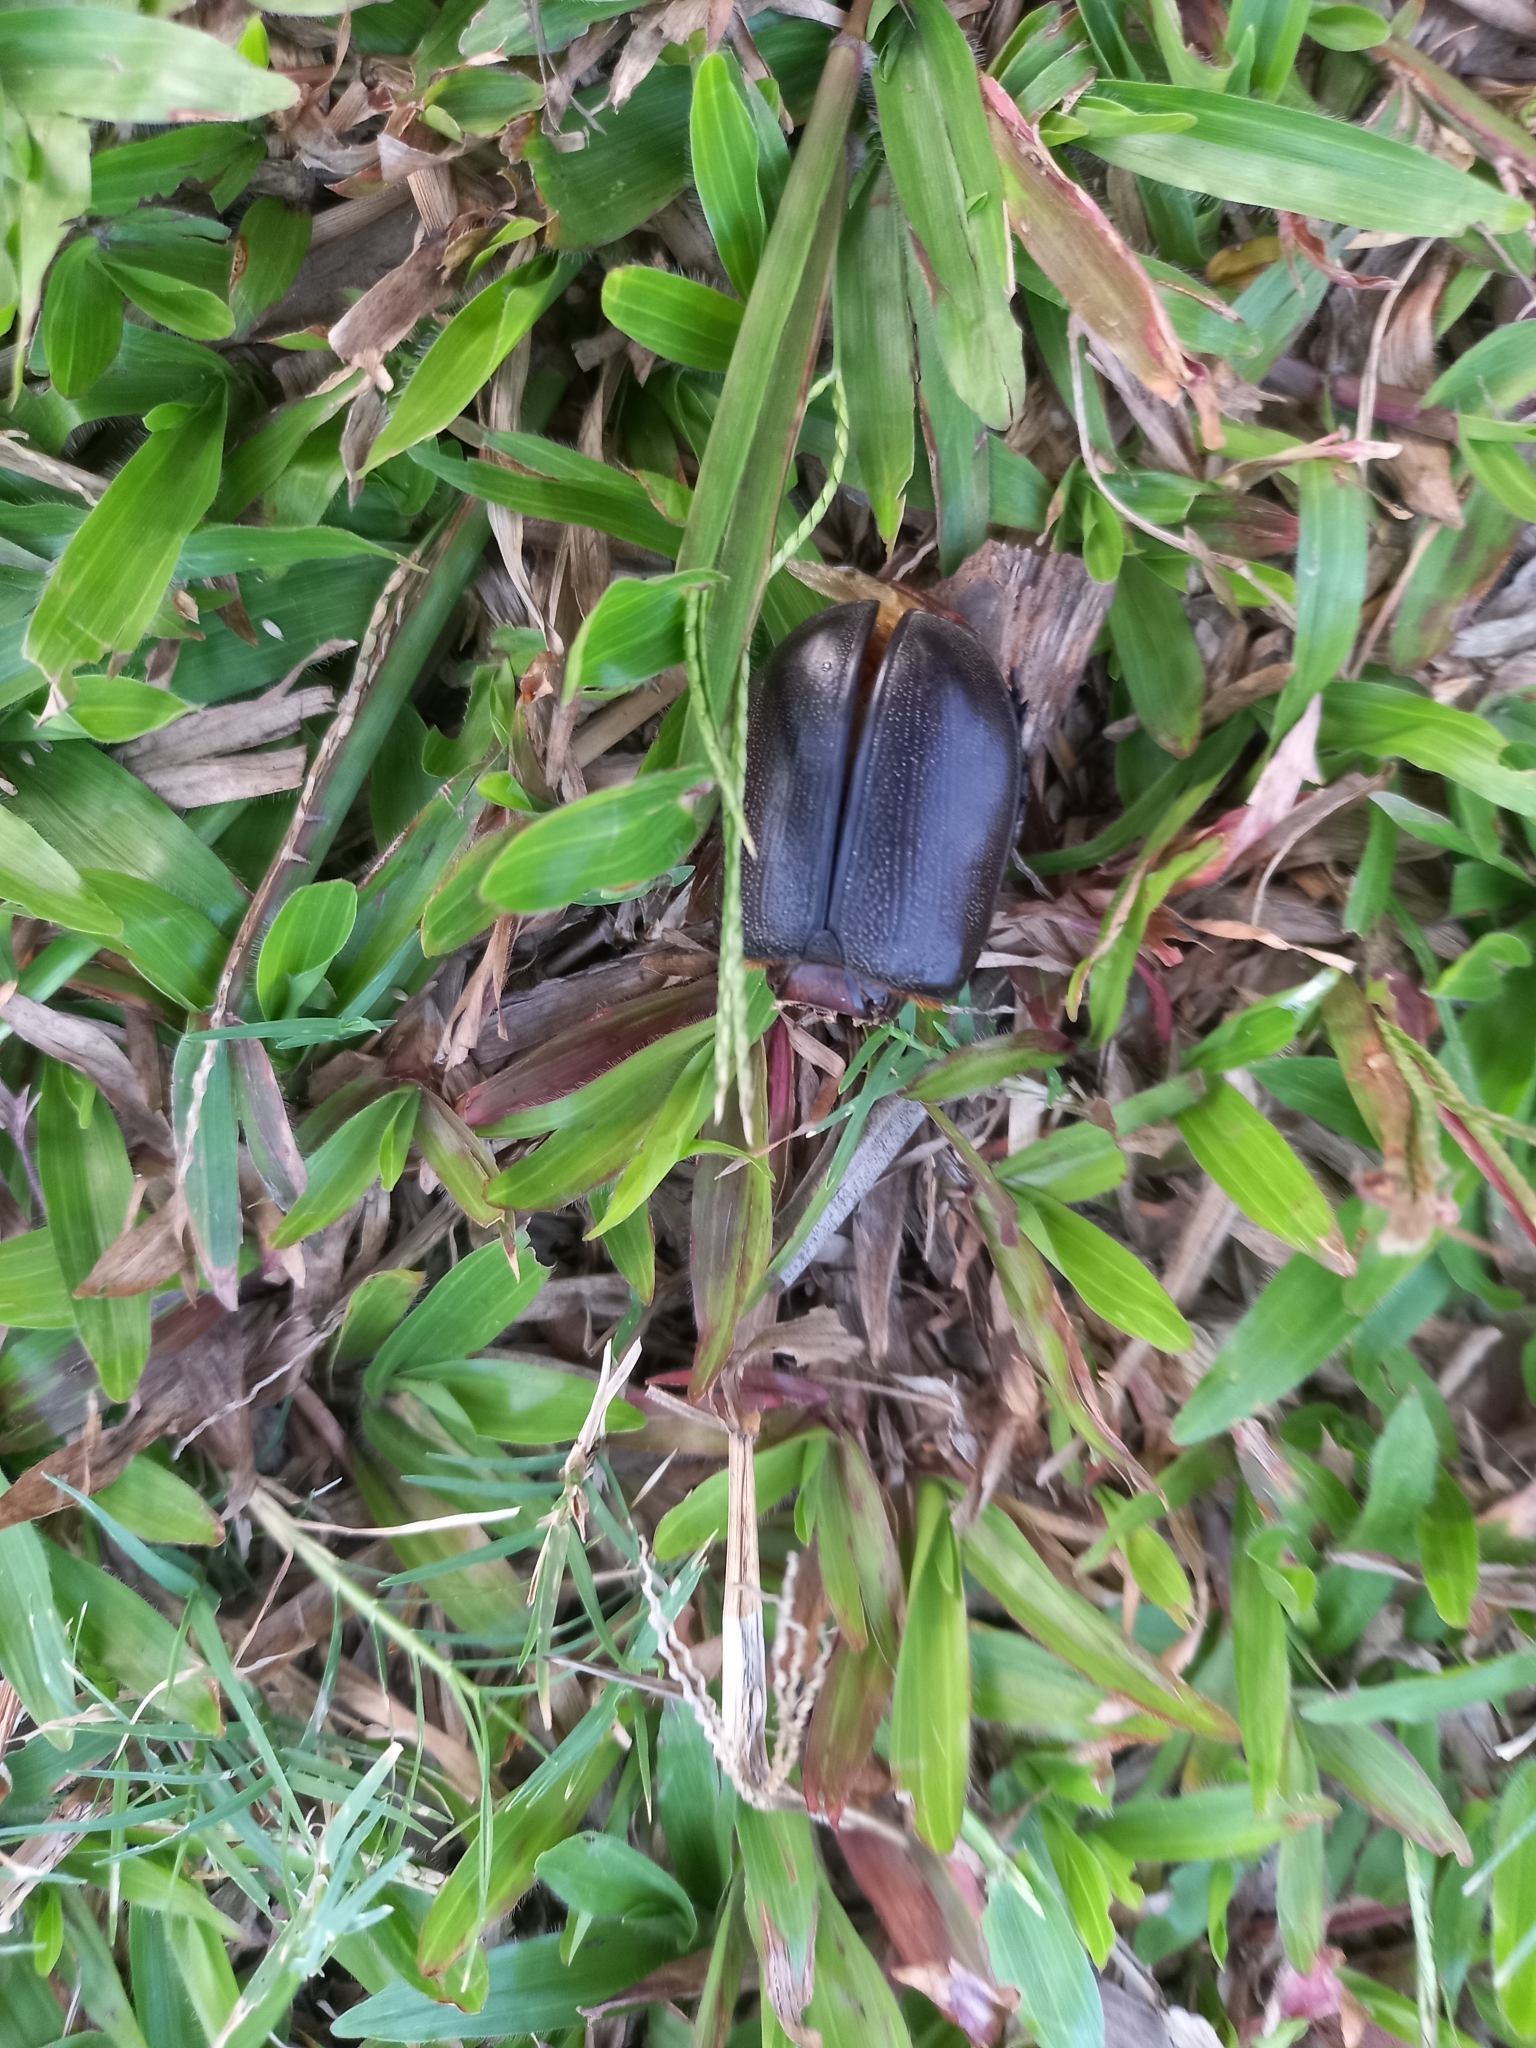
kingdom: Animalia
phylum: Arthropoda
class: Insecta
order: Coleoptera
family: Scarabaeidae
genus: Oryctes
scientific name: Oryctes rhinoceros
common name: Coconut rhinoceros beetle
